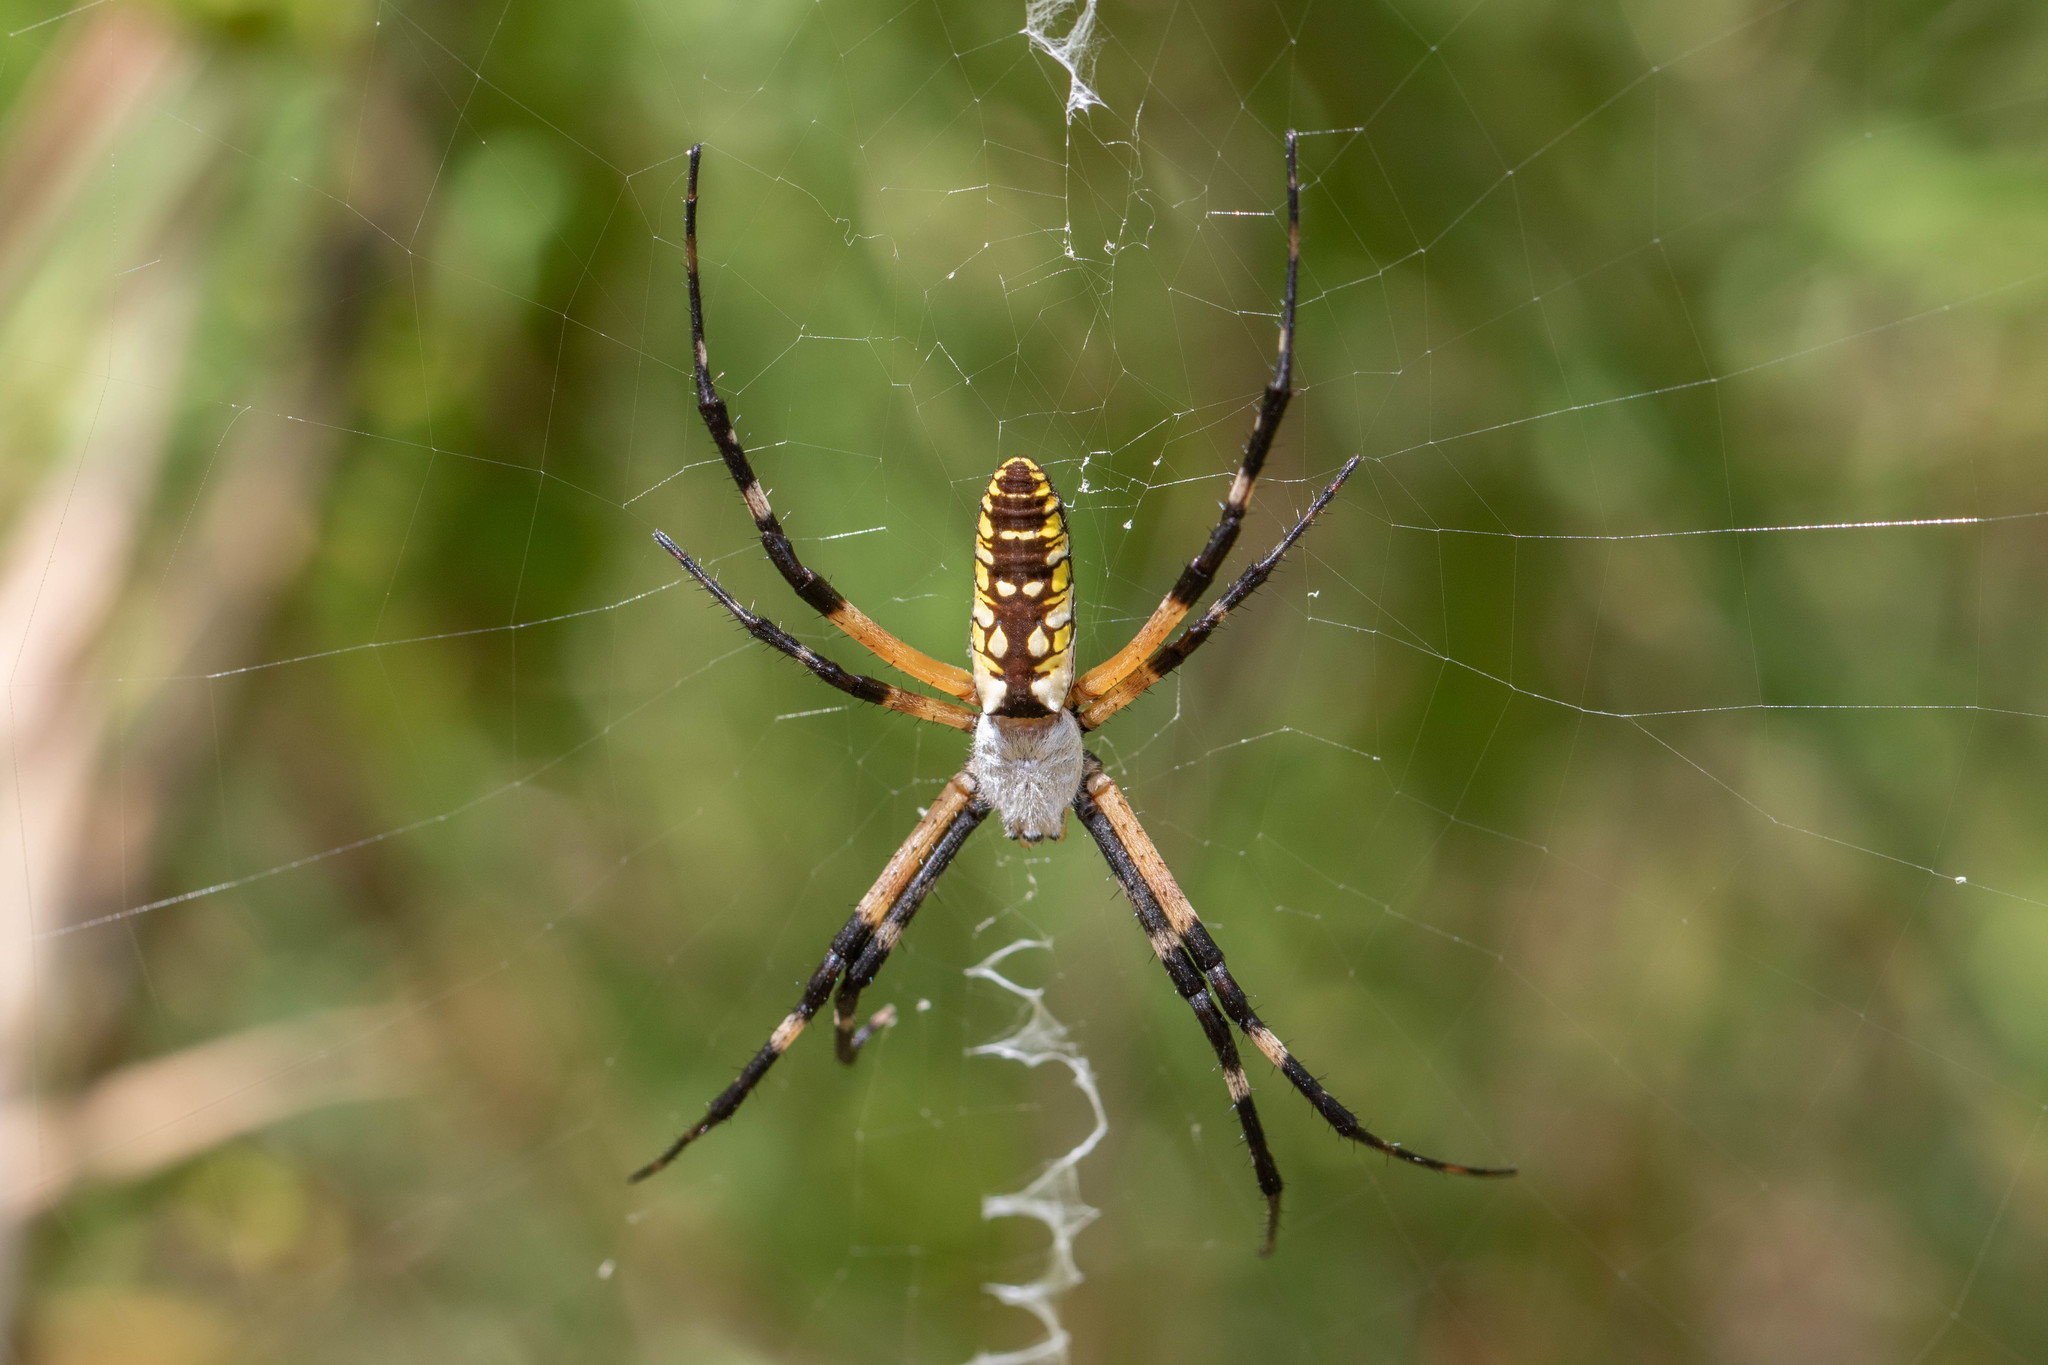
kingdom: Animalia
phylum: Arthropoda
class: Arachnida
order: Araneae
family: Araneidae
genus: Argiope
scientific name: Argiope aurantia
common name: Orb weavers
